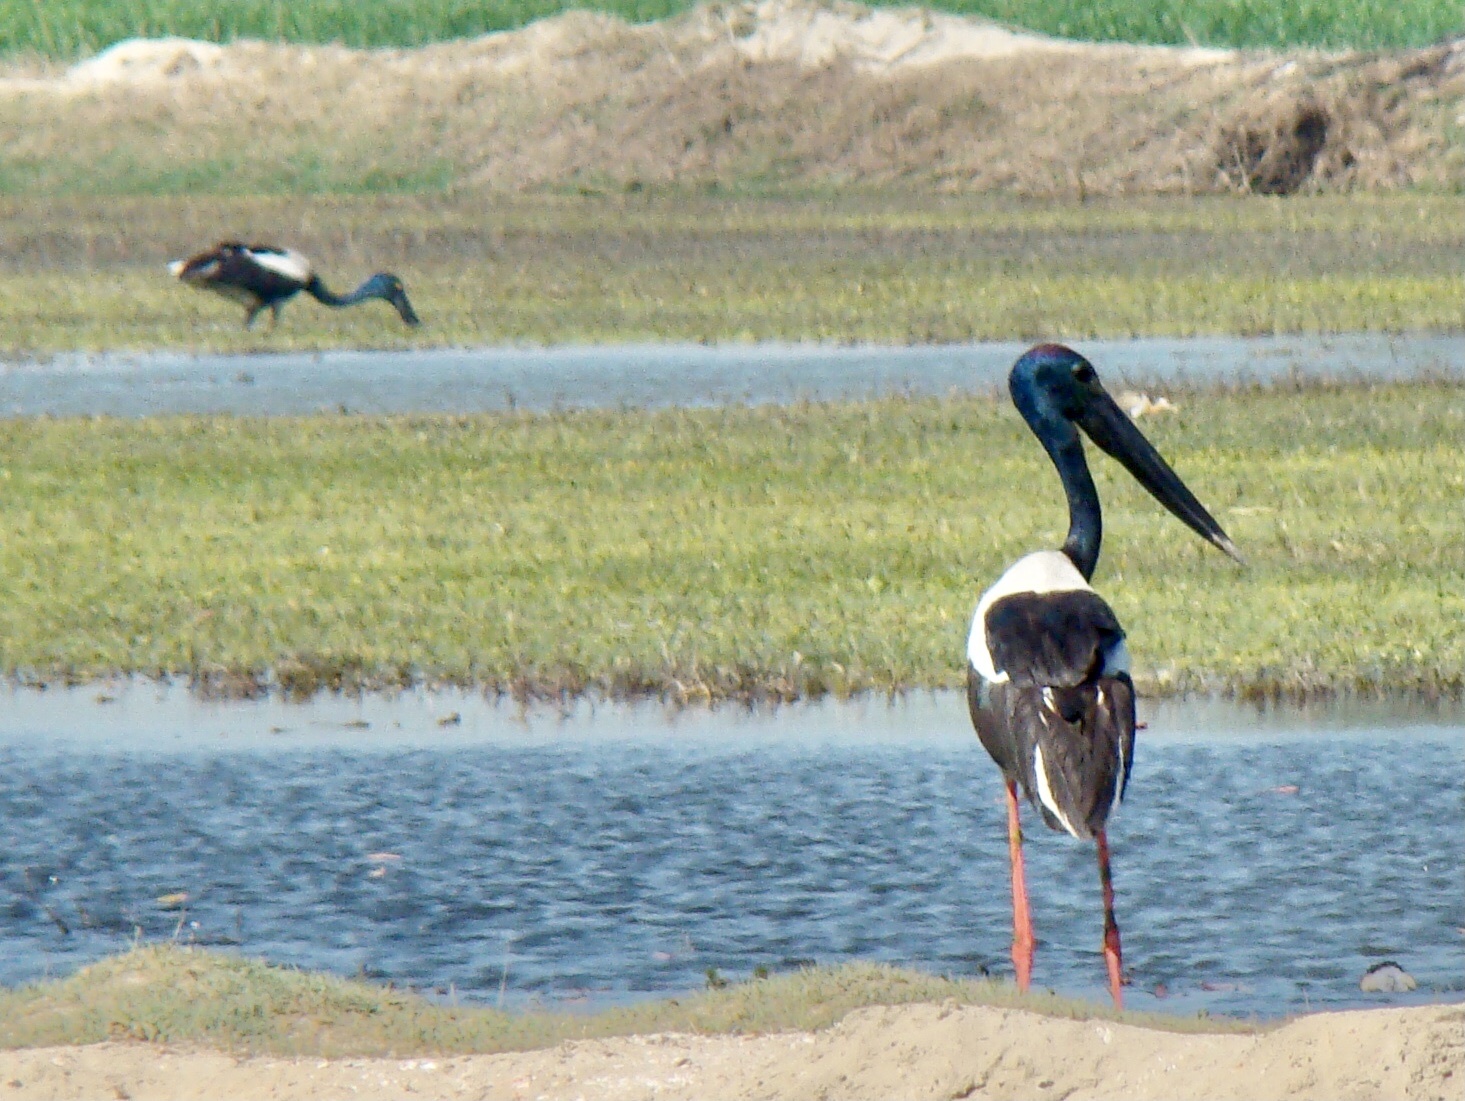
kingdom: Animalia
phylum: Chordata
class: Aves
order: Ciconiiformes
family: Ciconiidae
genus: Ephippiorhynchus
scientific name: Ephippiorhynchus asiaticus
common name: Black-necked stork
